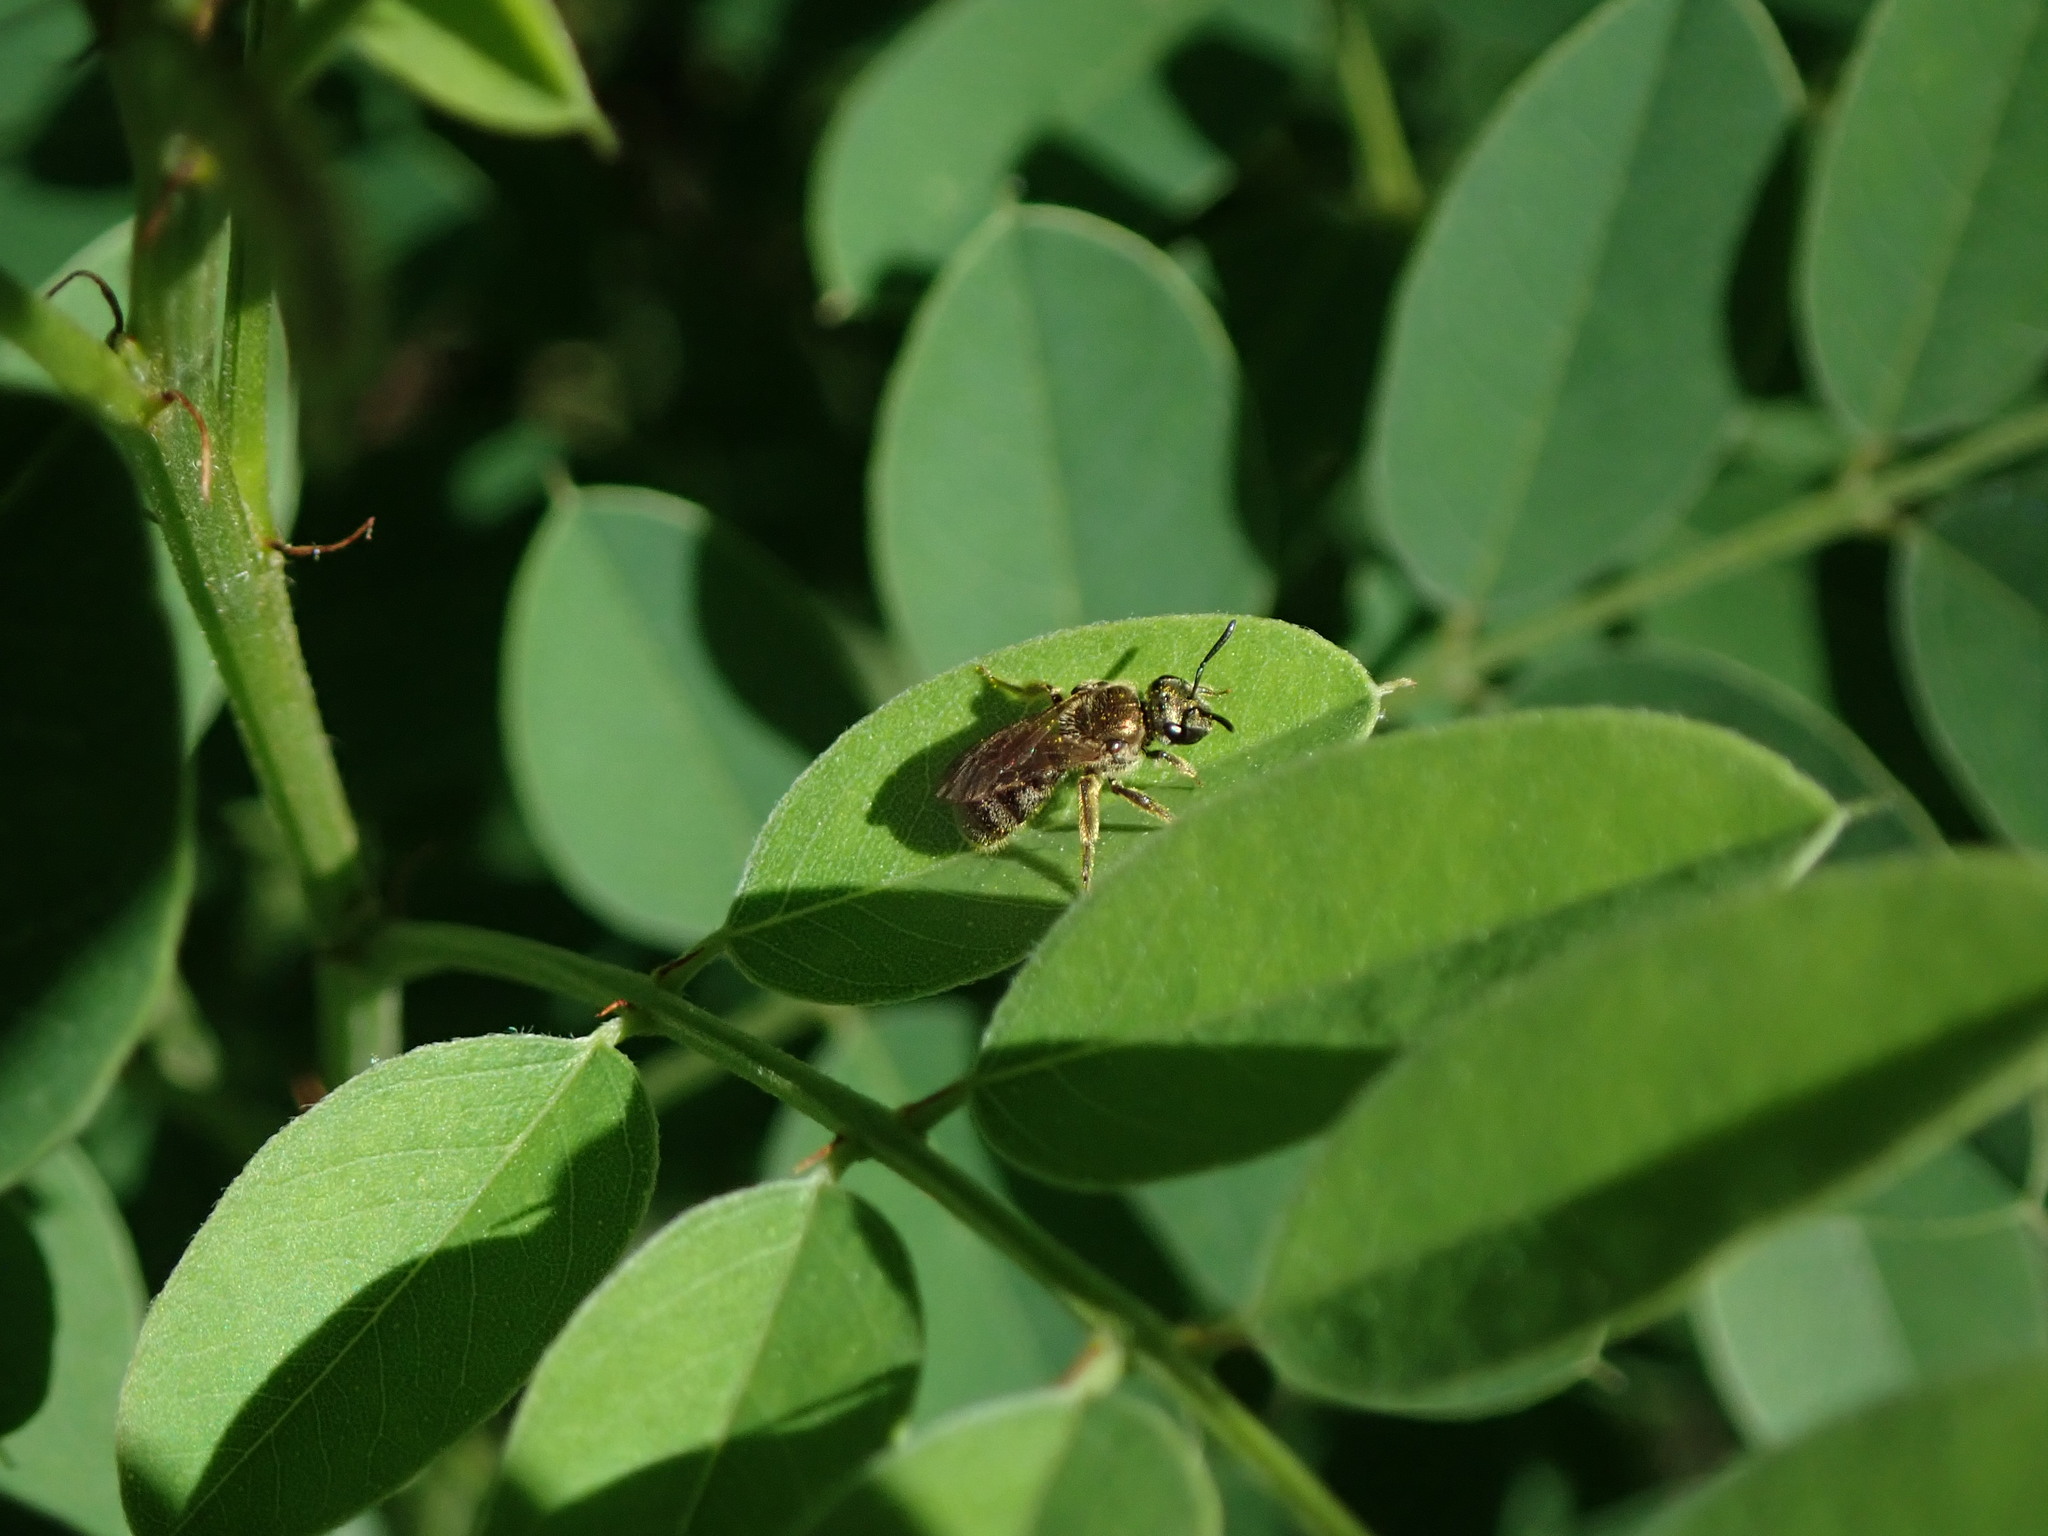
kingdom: Animalia
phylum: Arthropoda
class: Insecta
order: Hymenoptera
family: Halictidae
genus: Dialictus
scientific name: Dialictus
